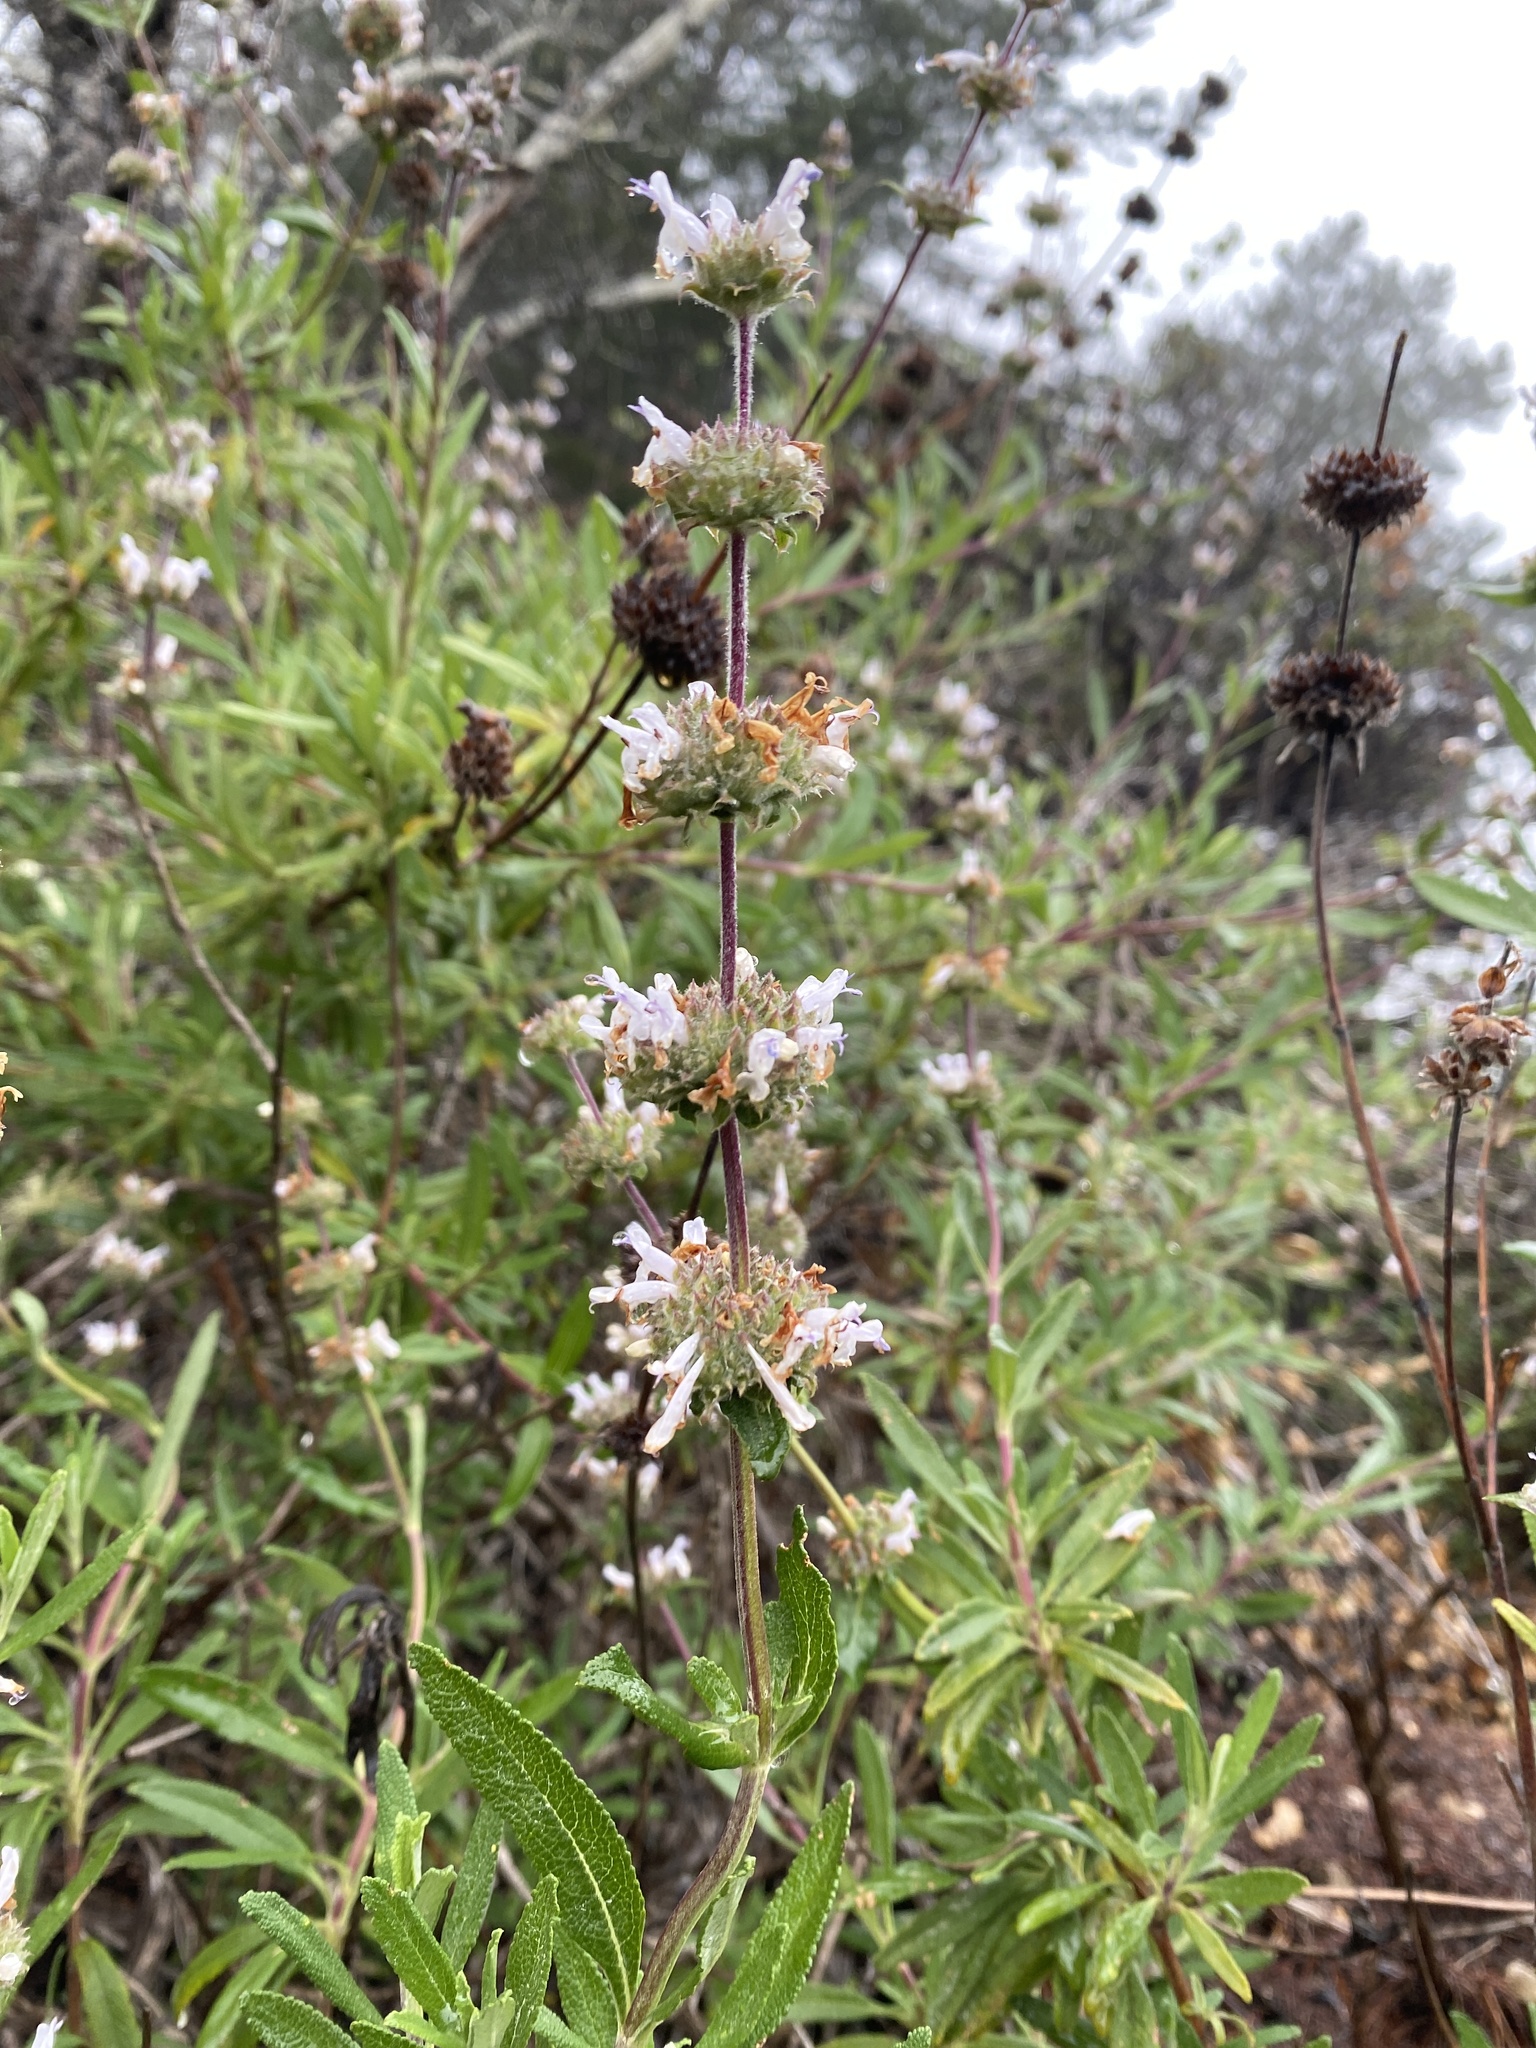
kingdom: Plantae
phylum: Tracheophyta
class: Magnoliopsida
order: Lamiales
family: Lamiaceae
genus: Salvia
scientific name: Salvia mellifera
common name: Black sage
